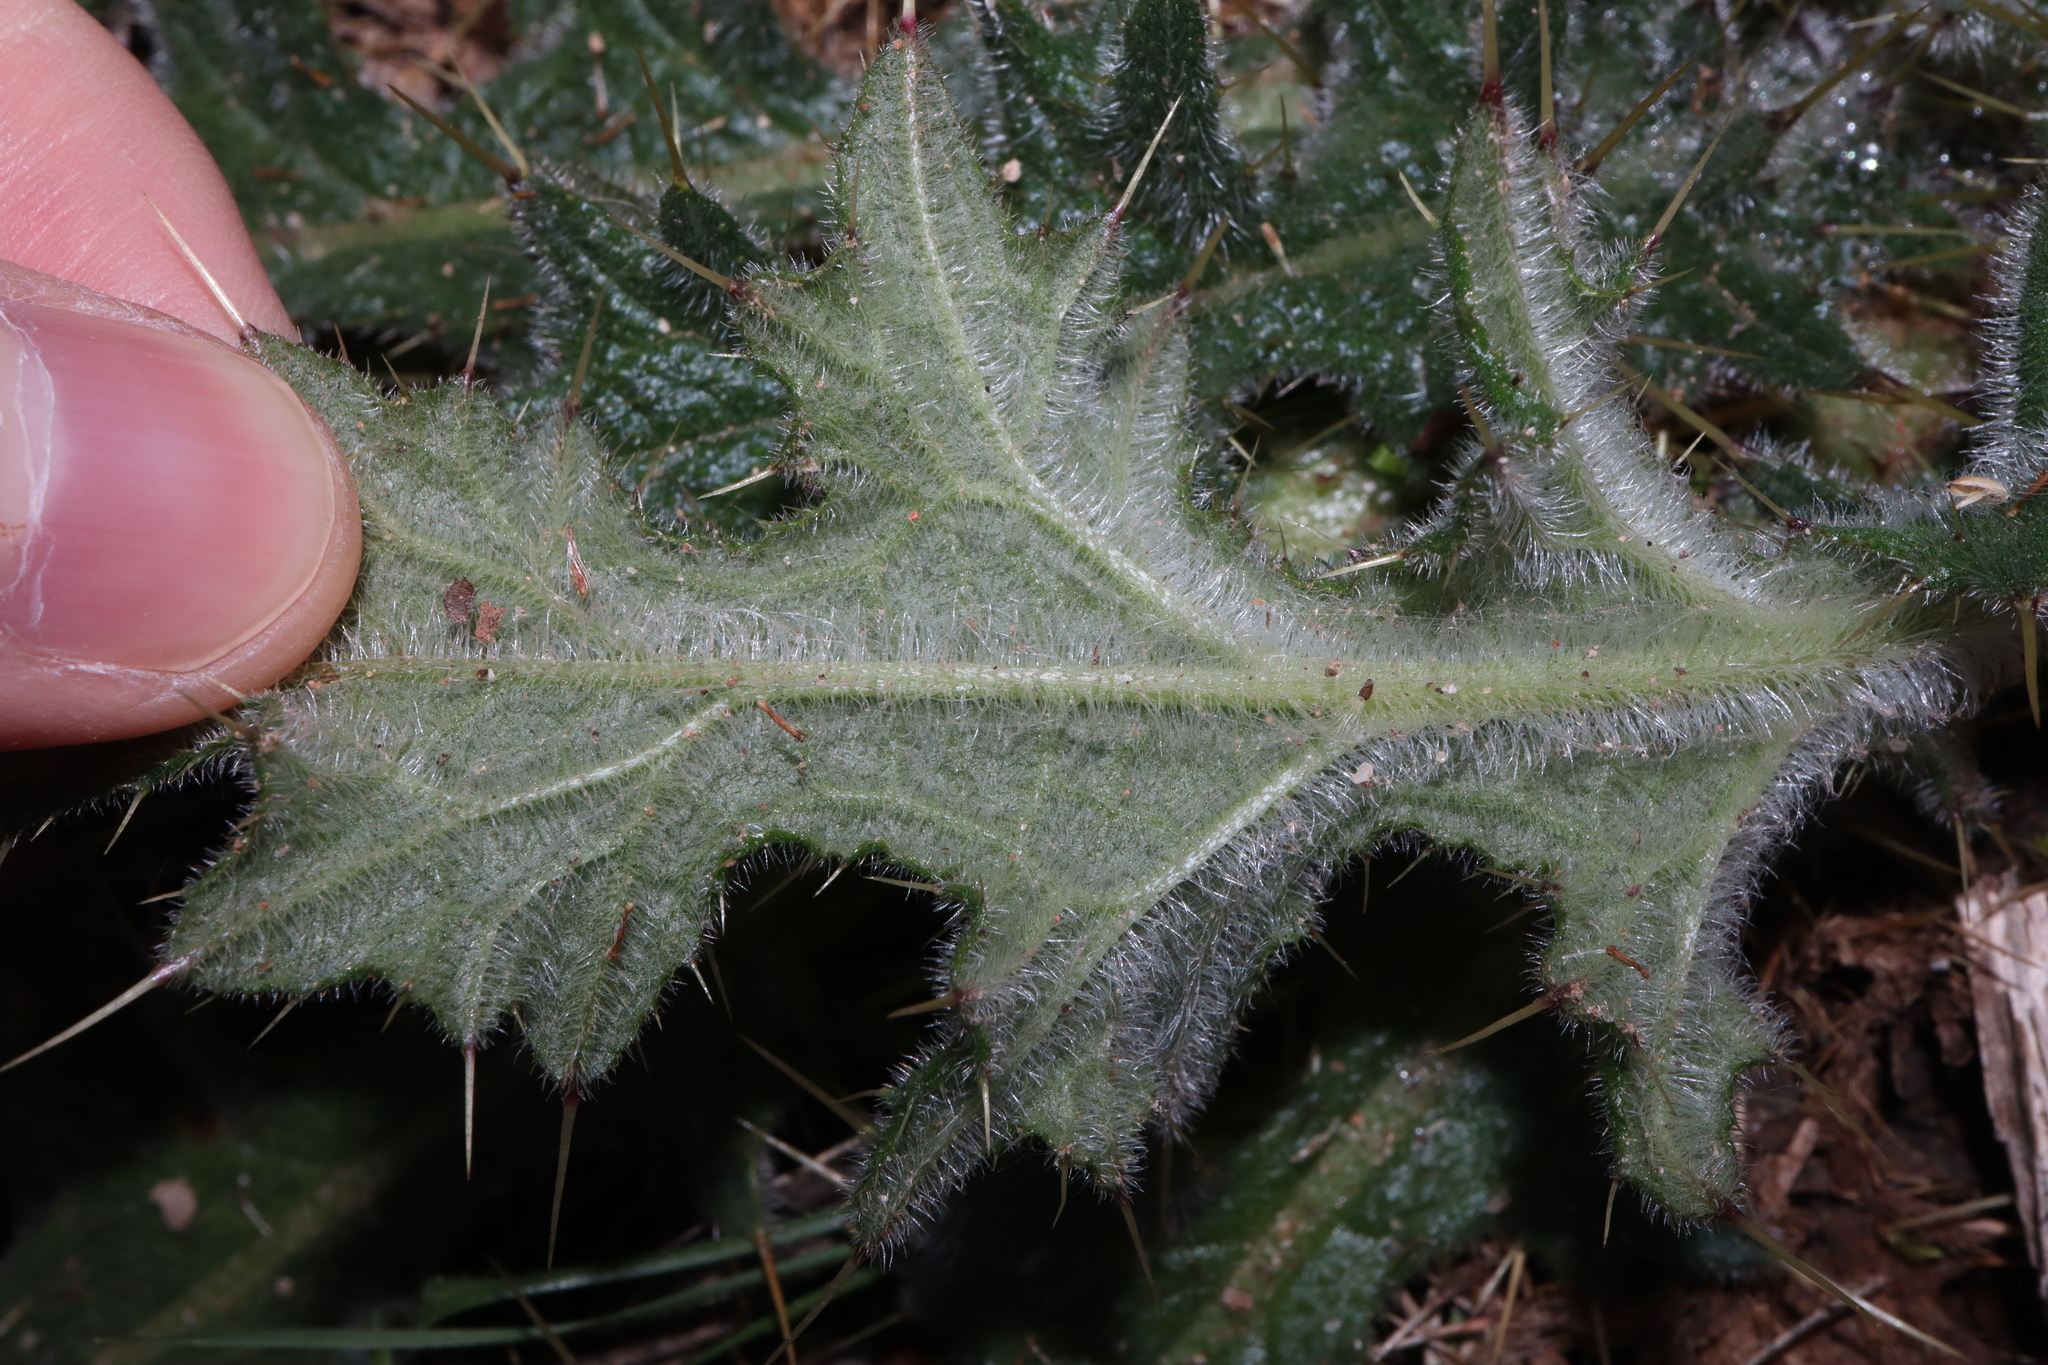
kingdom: Plantae
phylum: Tracheophyta
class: Magnoliopsida
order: Asterales
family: Asteraceae
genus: Cirsium
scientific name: Cirsium vulgare
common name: Bull thistle
